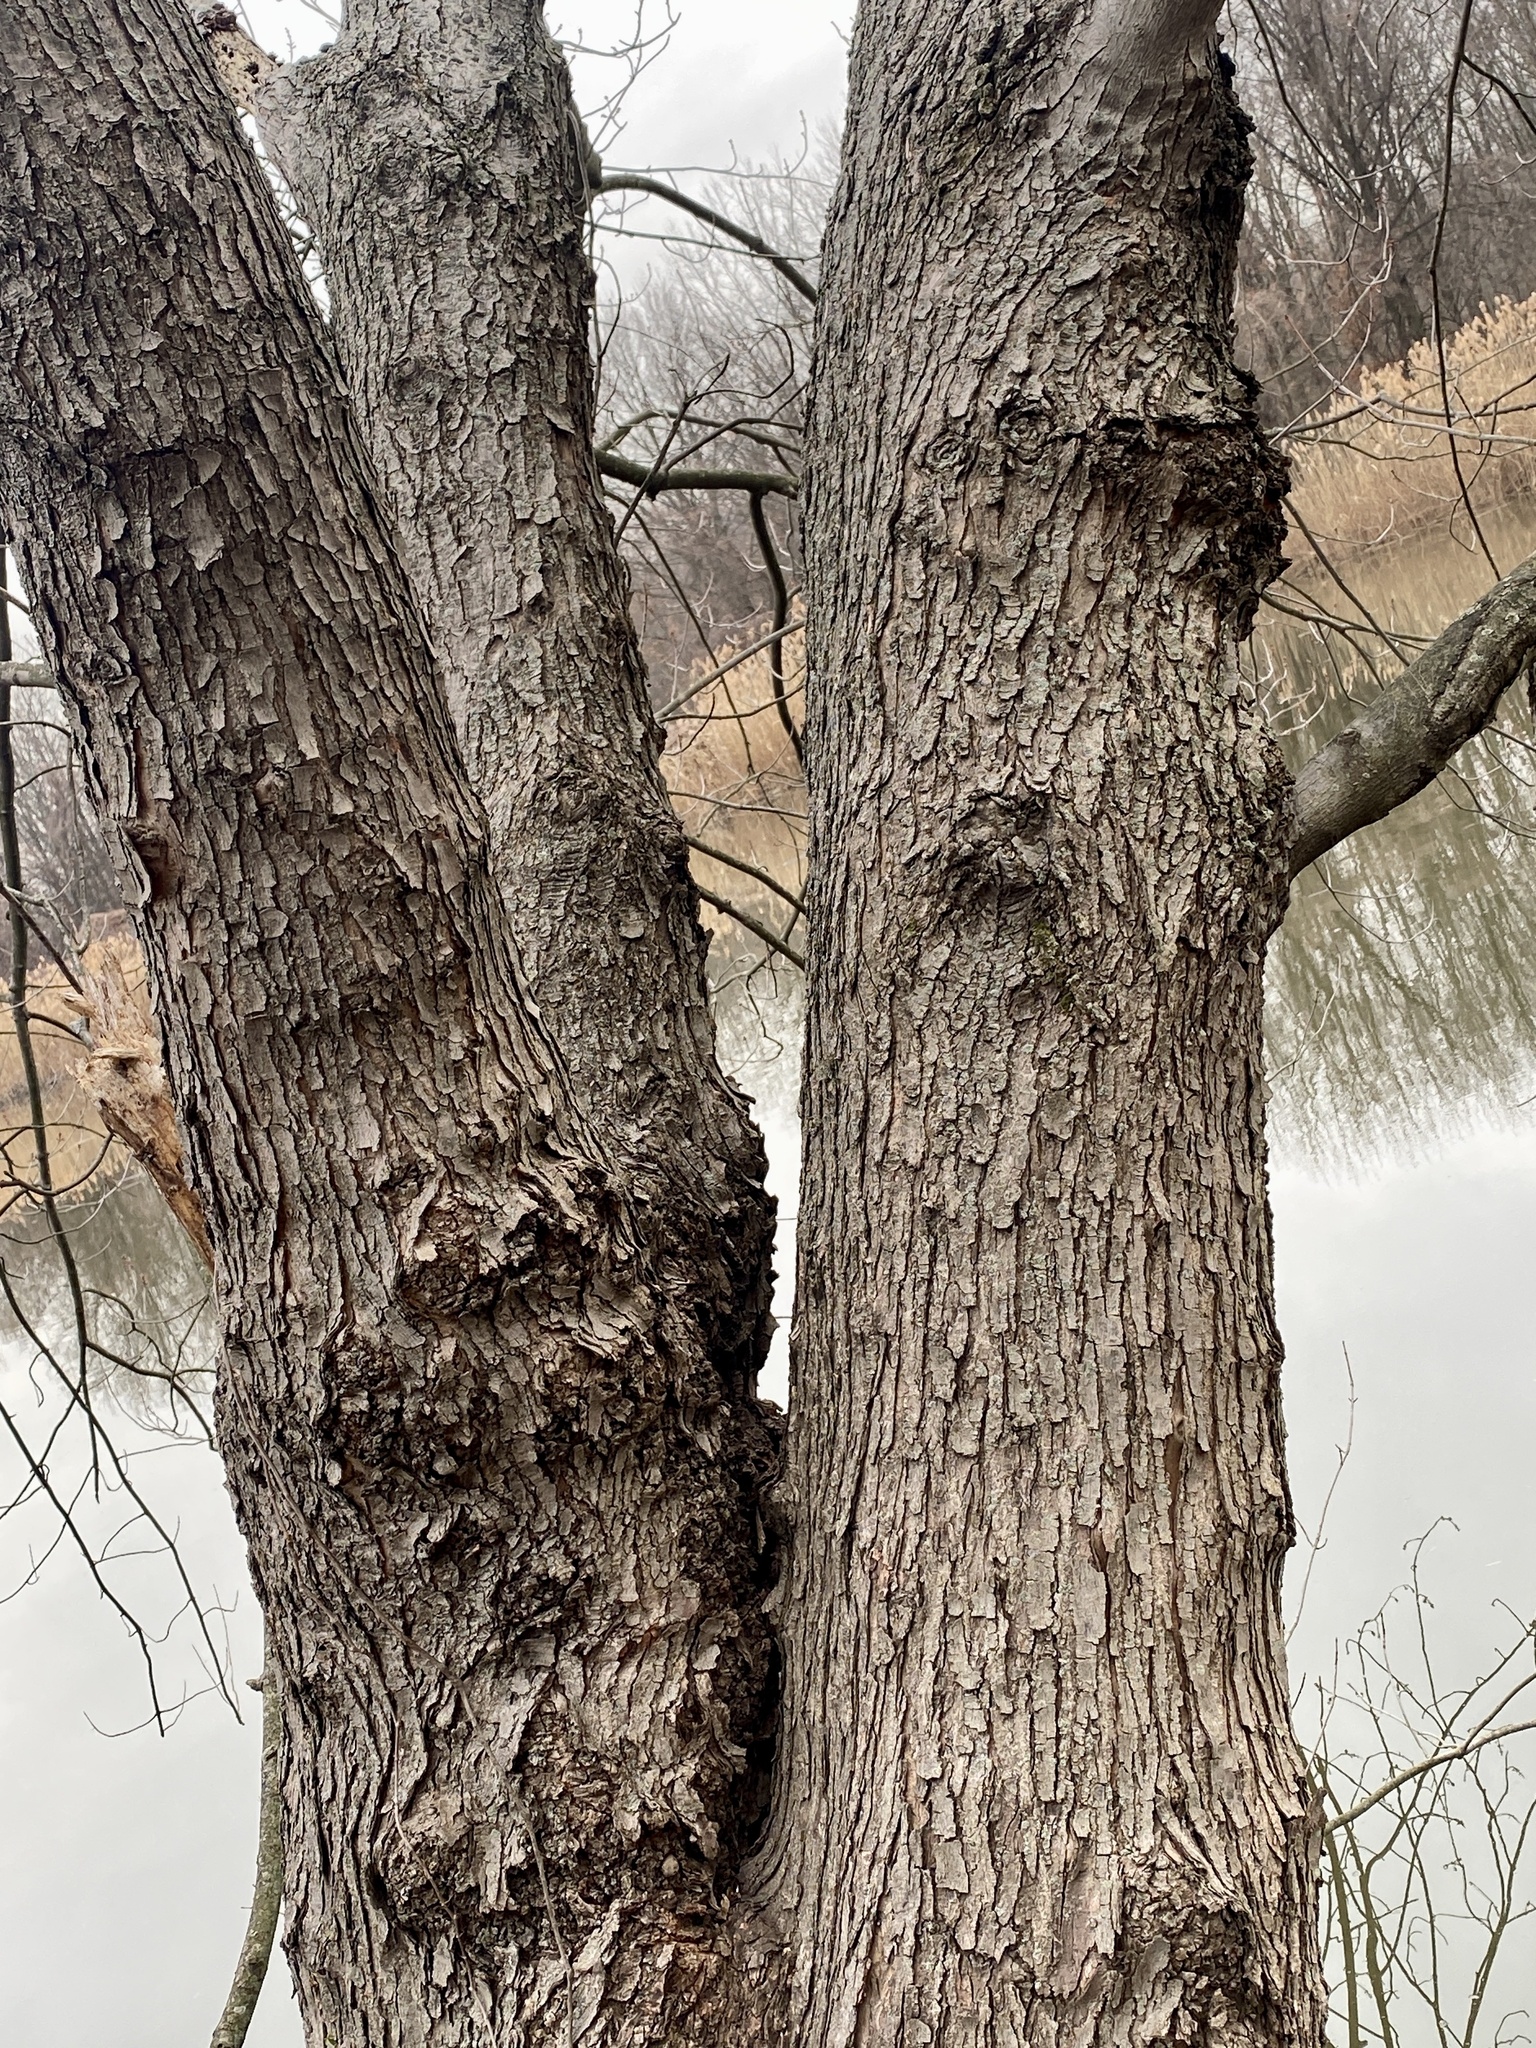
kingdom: Plantae
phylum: Tracheophyta
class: Magnoliopsida
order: Sapindales
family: Sapindaceae
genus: Acer
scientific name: Acer saccharinum
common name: Silver maple
